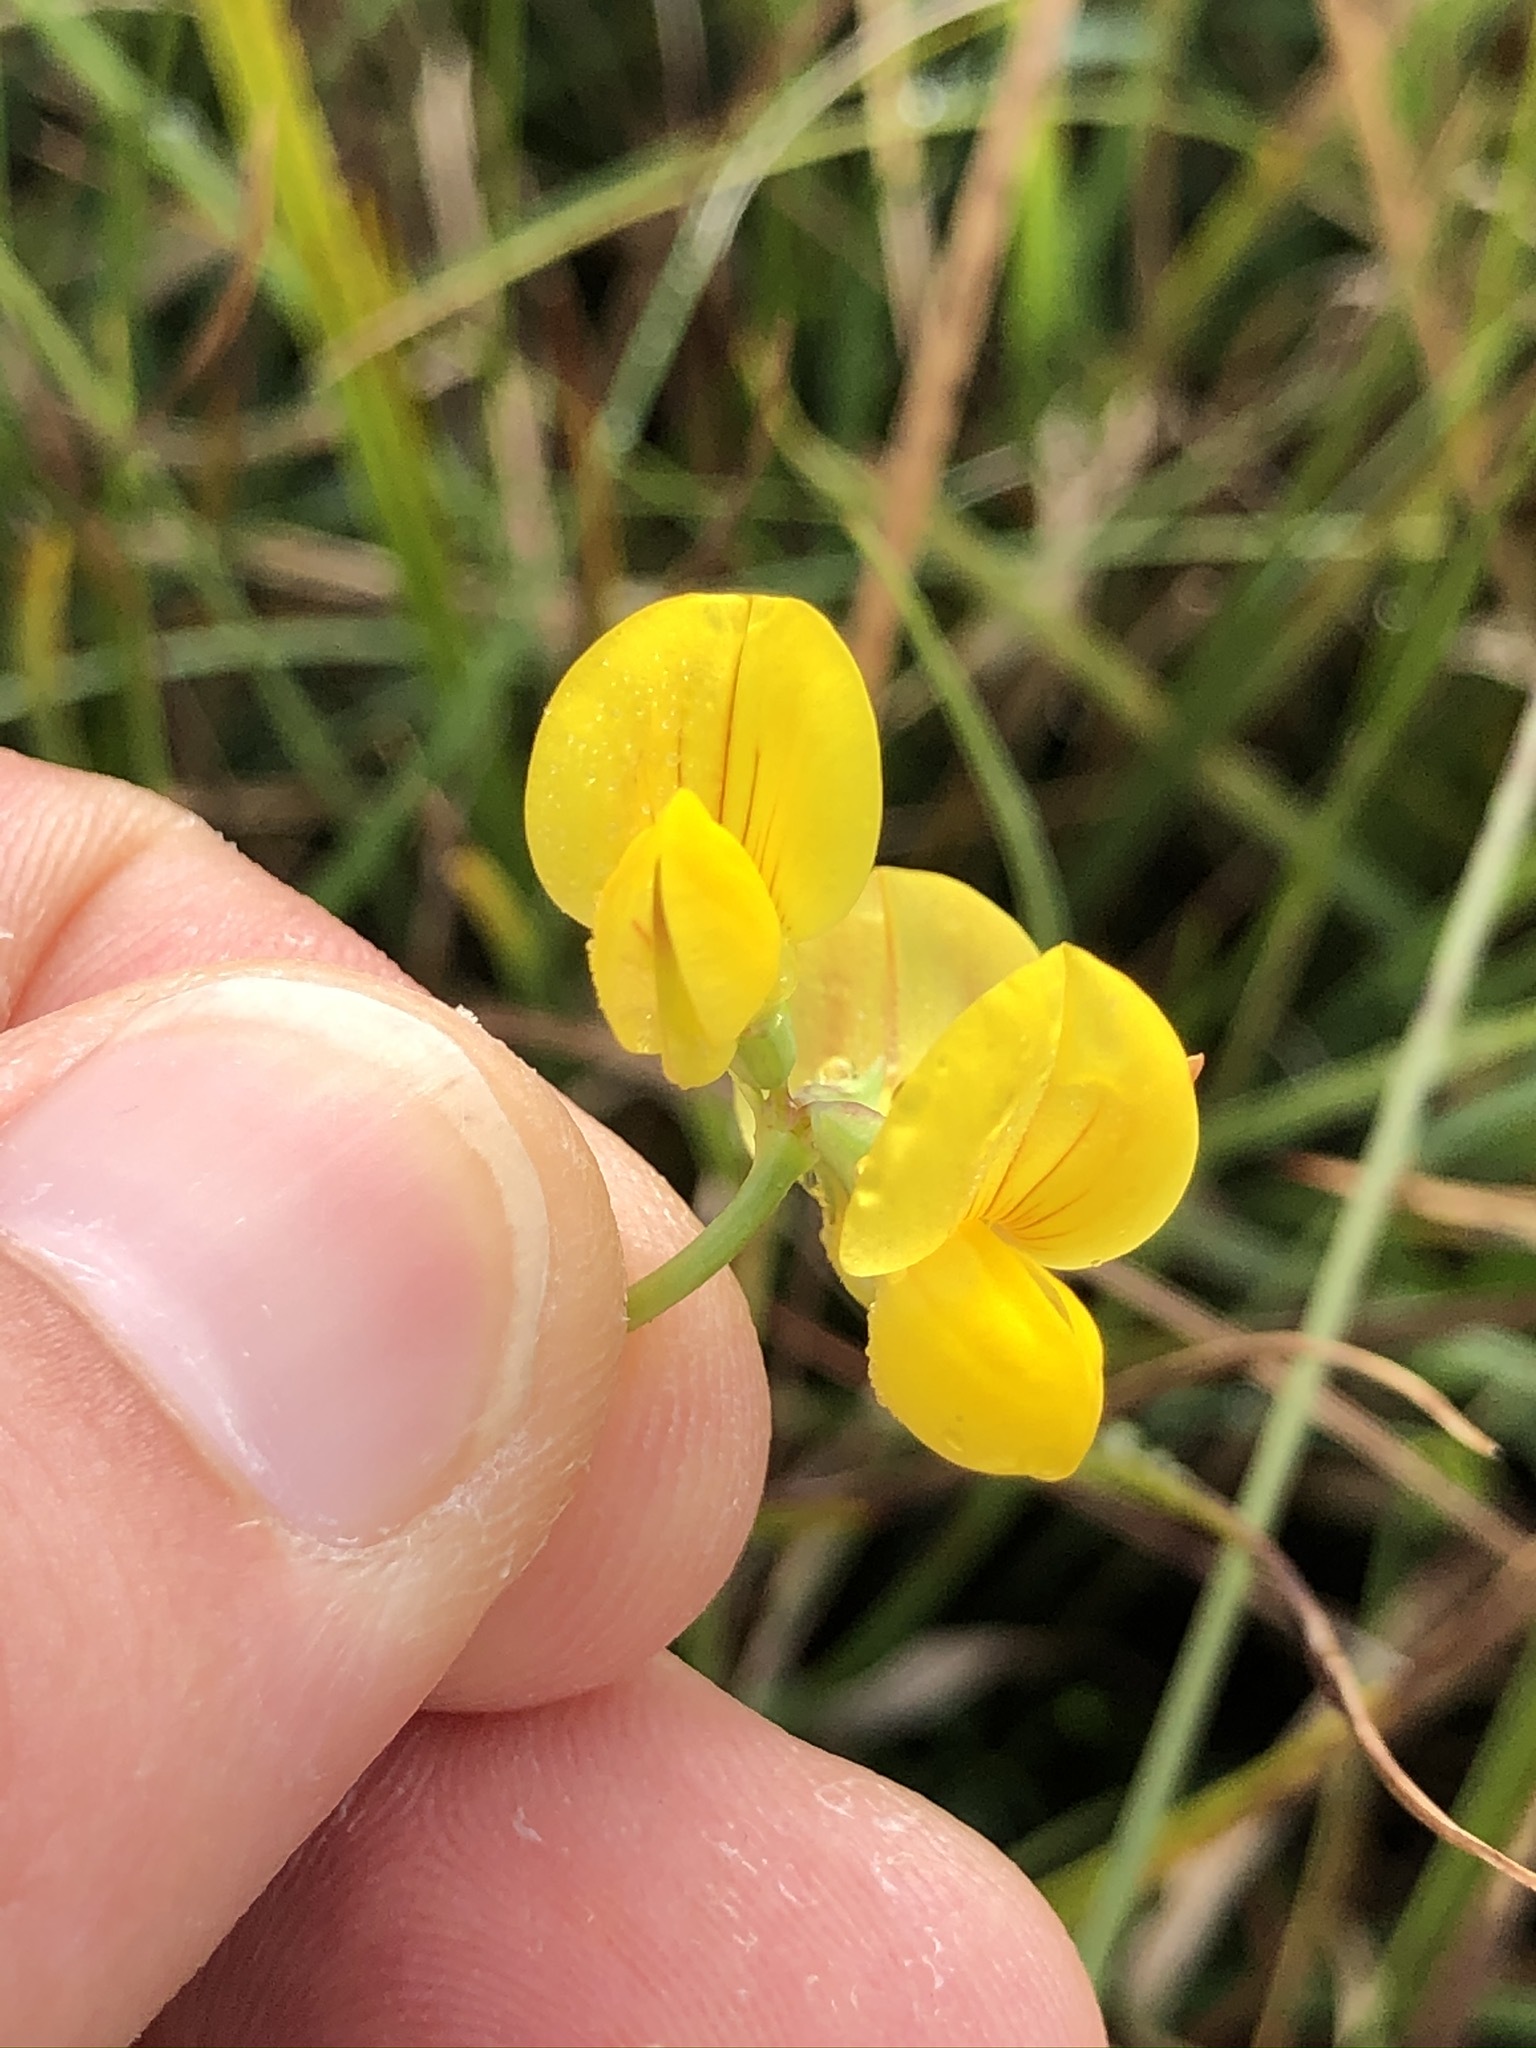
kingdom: Plantae
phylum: Tracheophyta
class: Magnoliopsida
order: Fabales
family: Fabaceae
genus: Lotus
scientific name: Lotus corniculatus
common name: Common bird's-foot-trefoil
